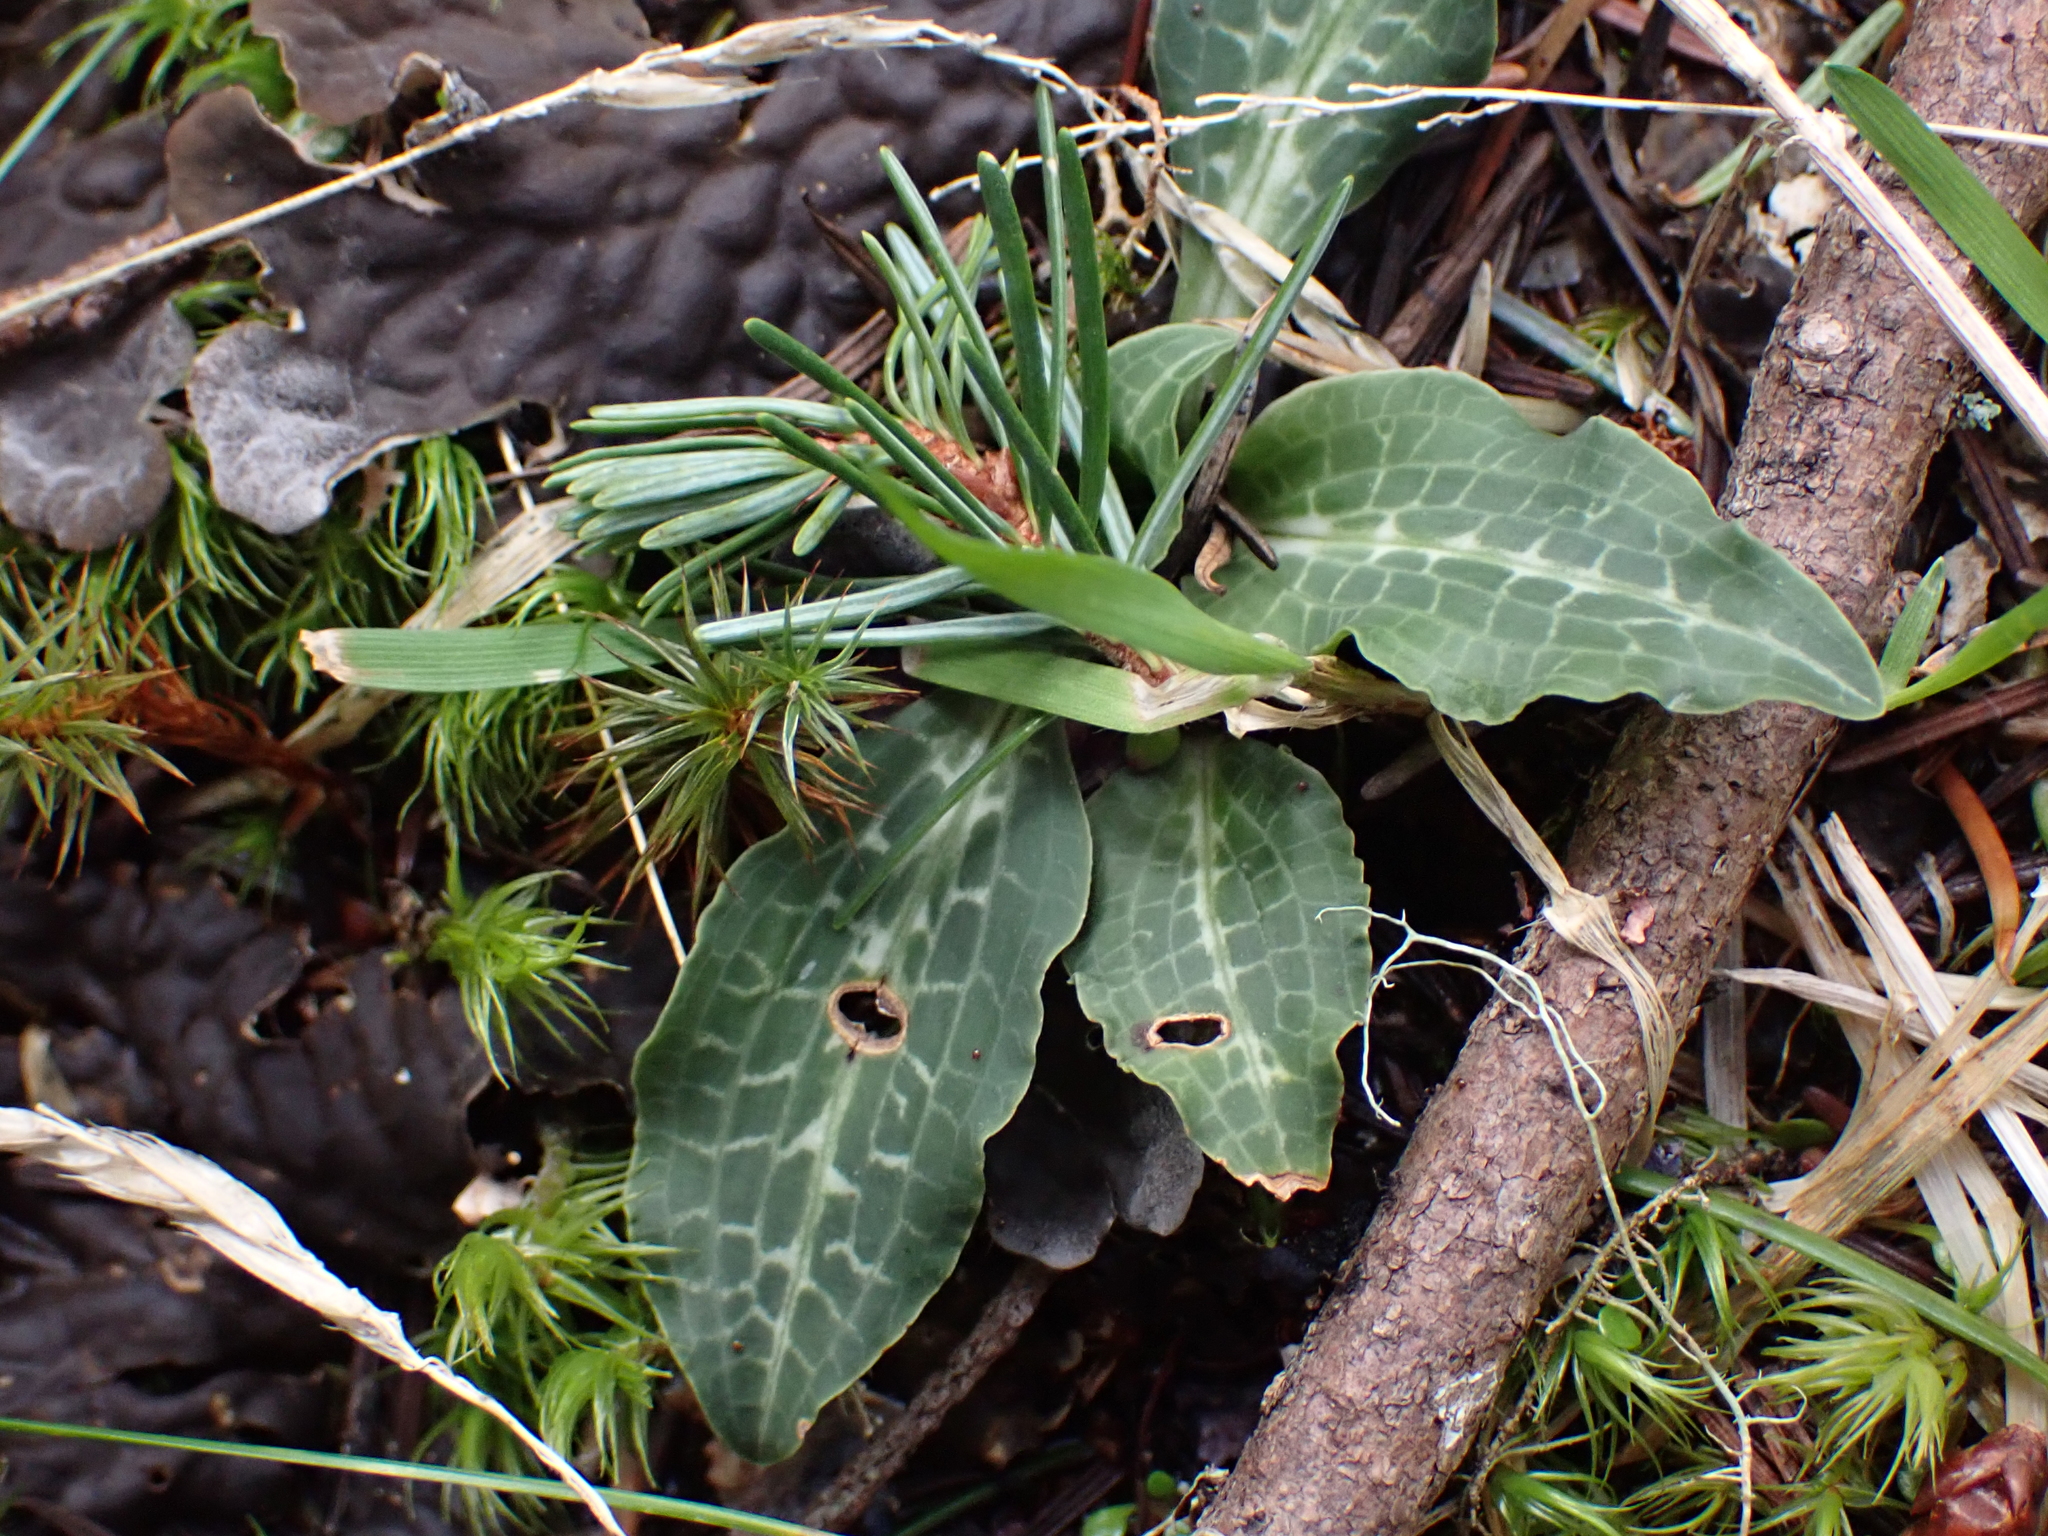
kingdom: Plantae
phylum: Tracheophyta
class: Liliopsida
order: Asparagales
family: Orchidaceae
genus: Goodyera
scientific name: Goodyera oblongifolia
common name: Giant rattlesnake-plantain
